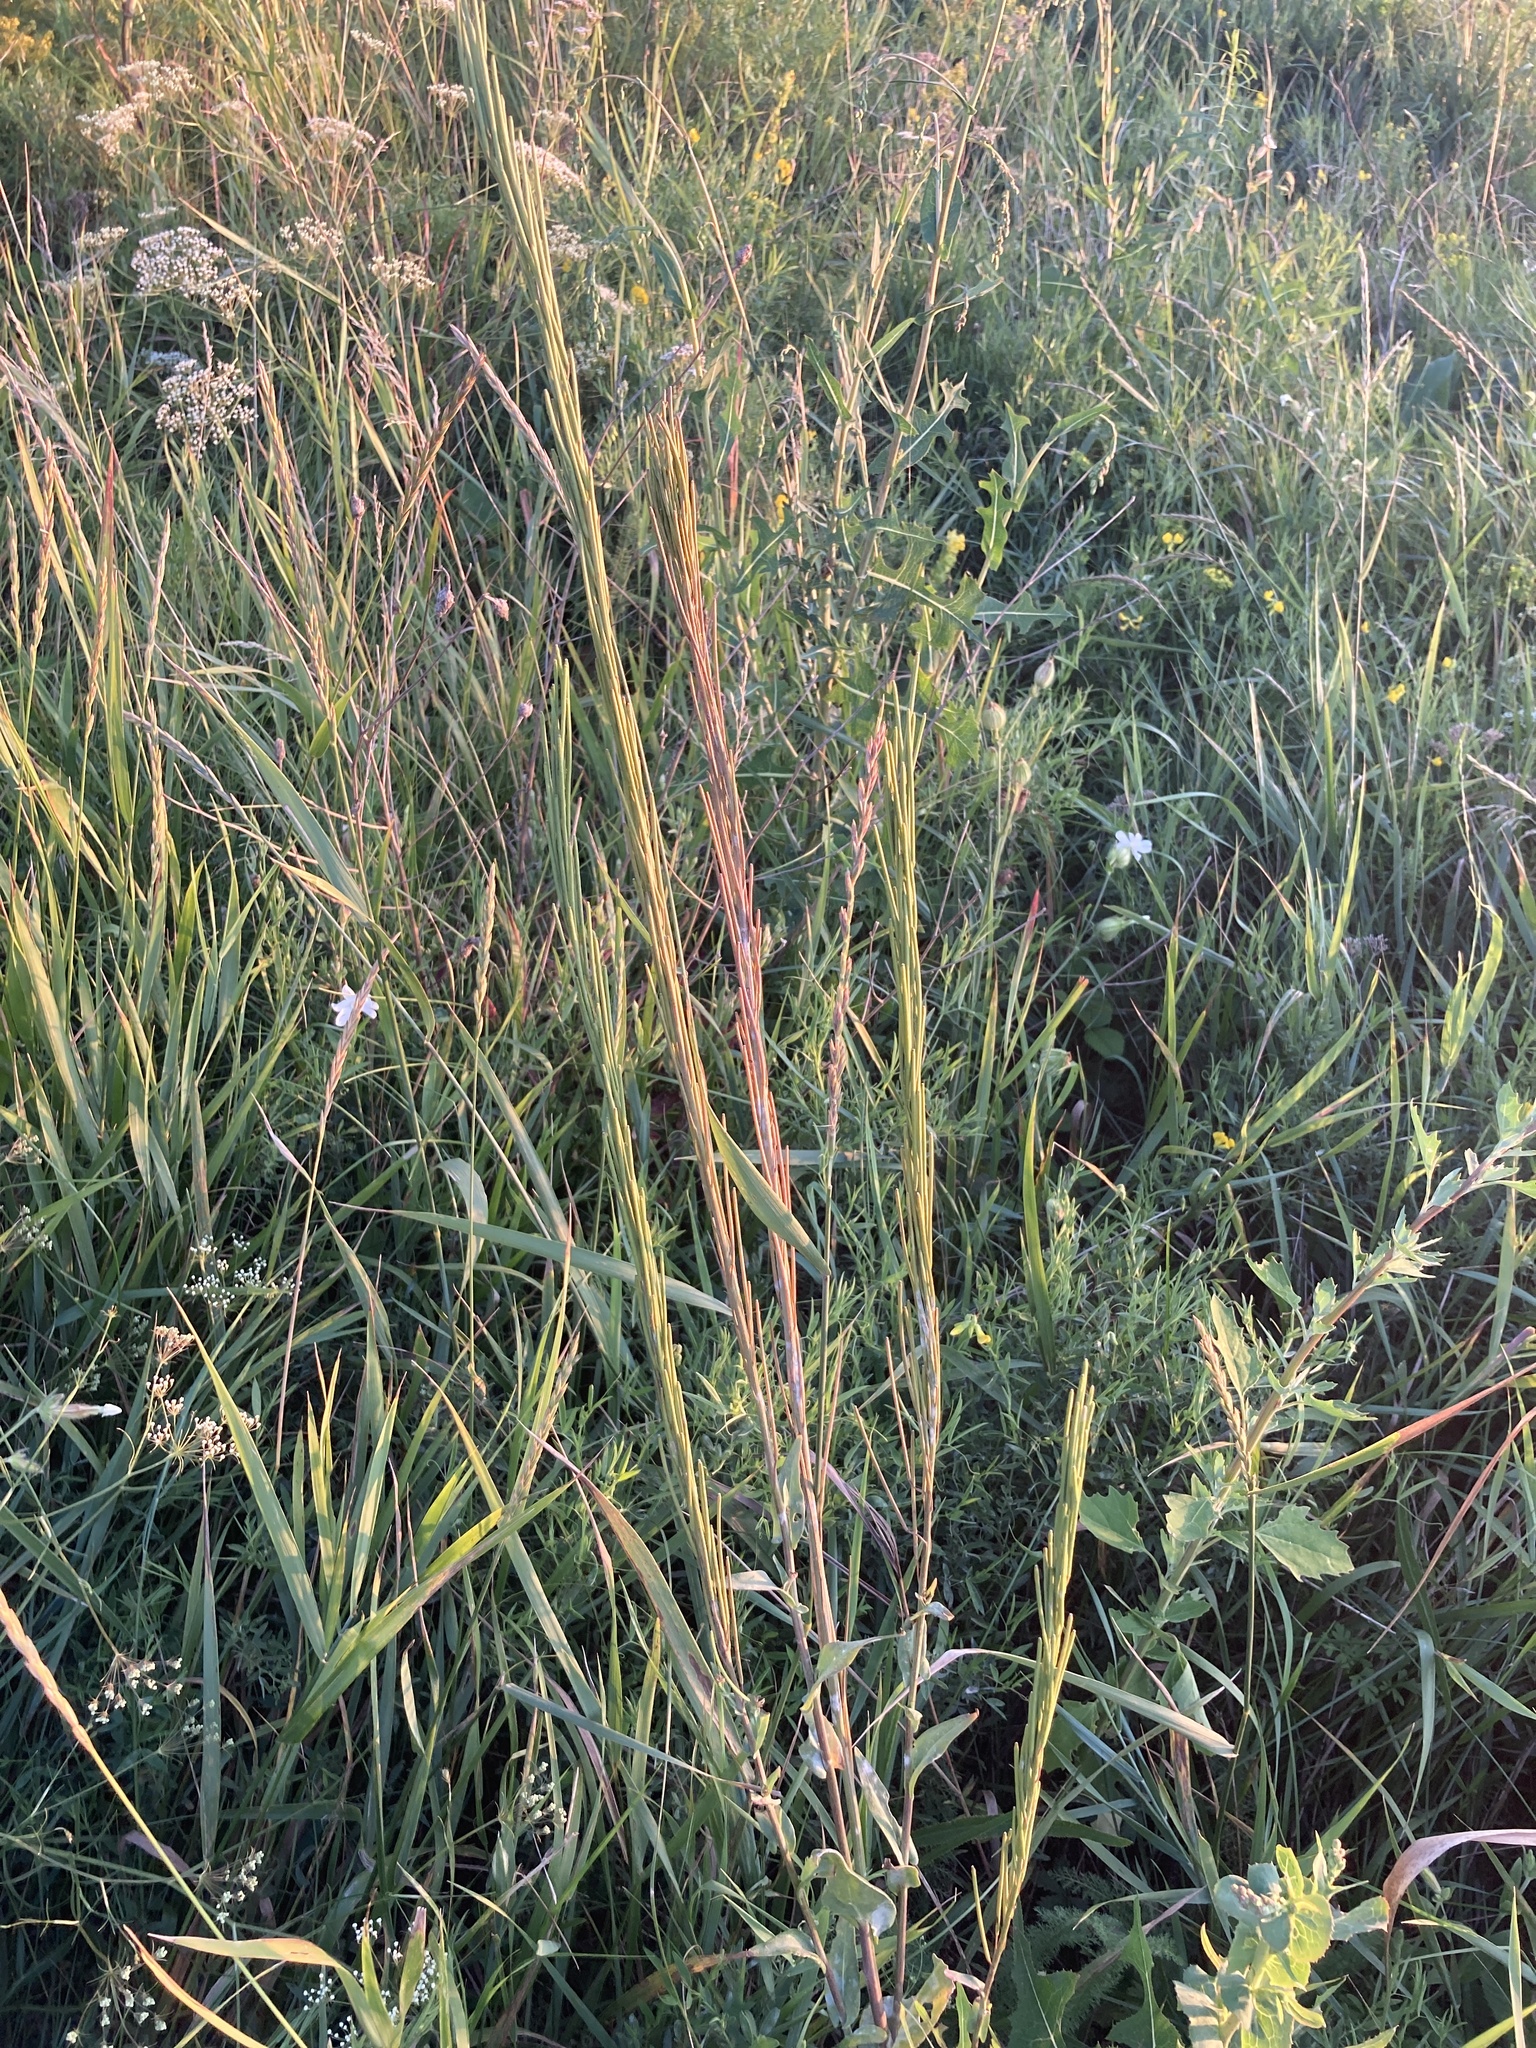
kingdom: Plantae
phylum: Tracheophyta
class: Magnoliopsida
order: Brassicales
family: Brassicaceae
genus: Turritis
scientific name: Turritis glabra
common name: Tower rockcress
